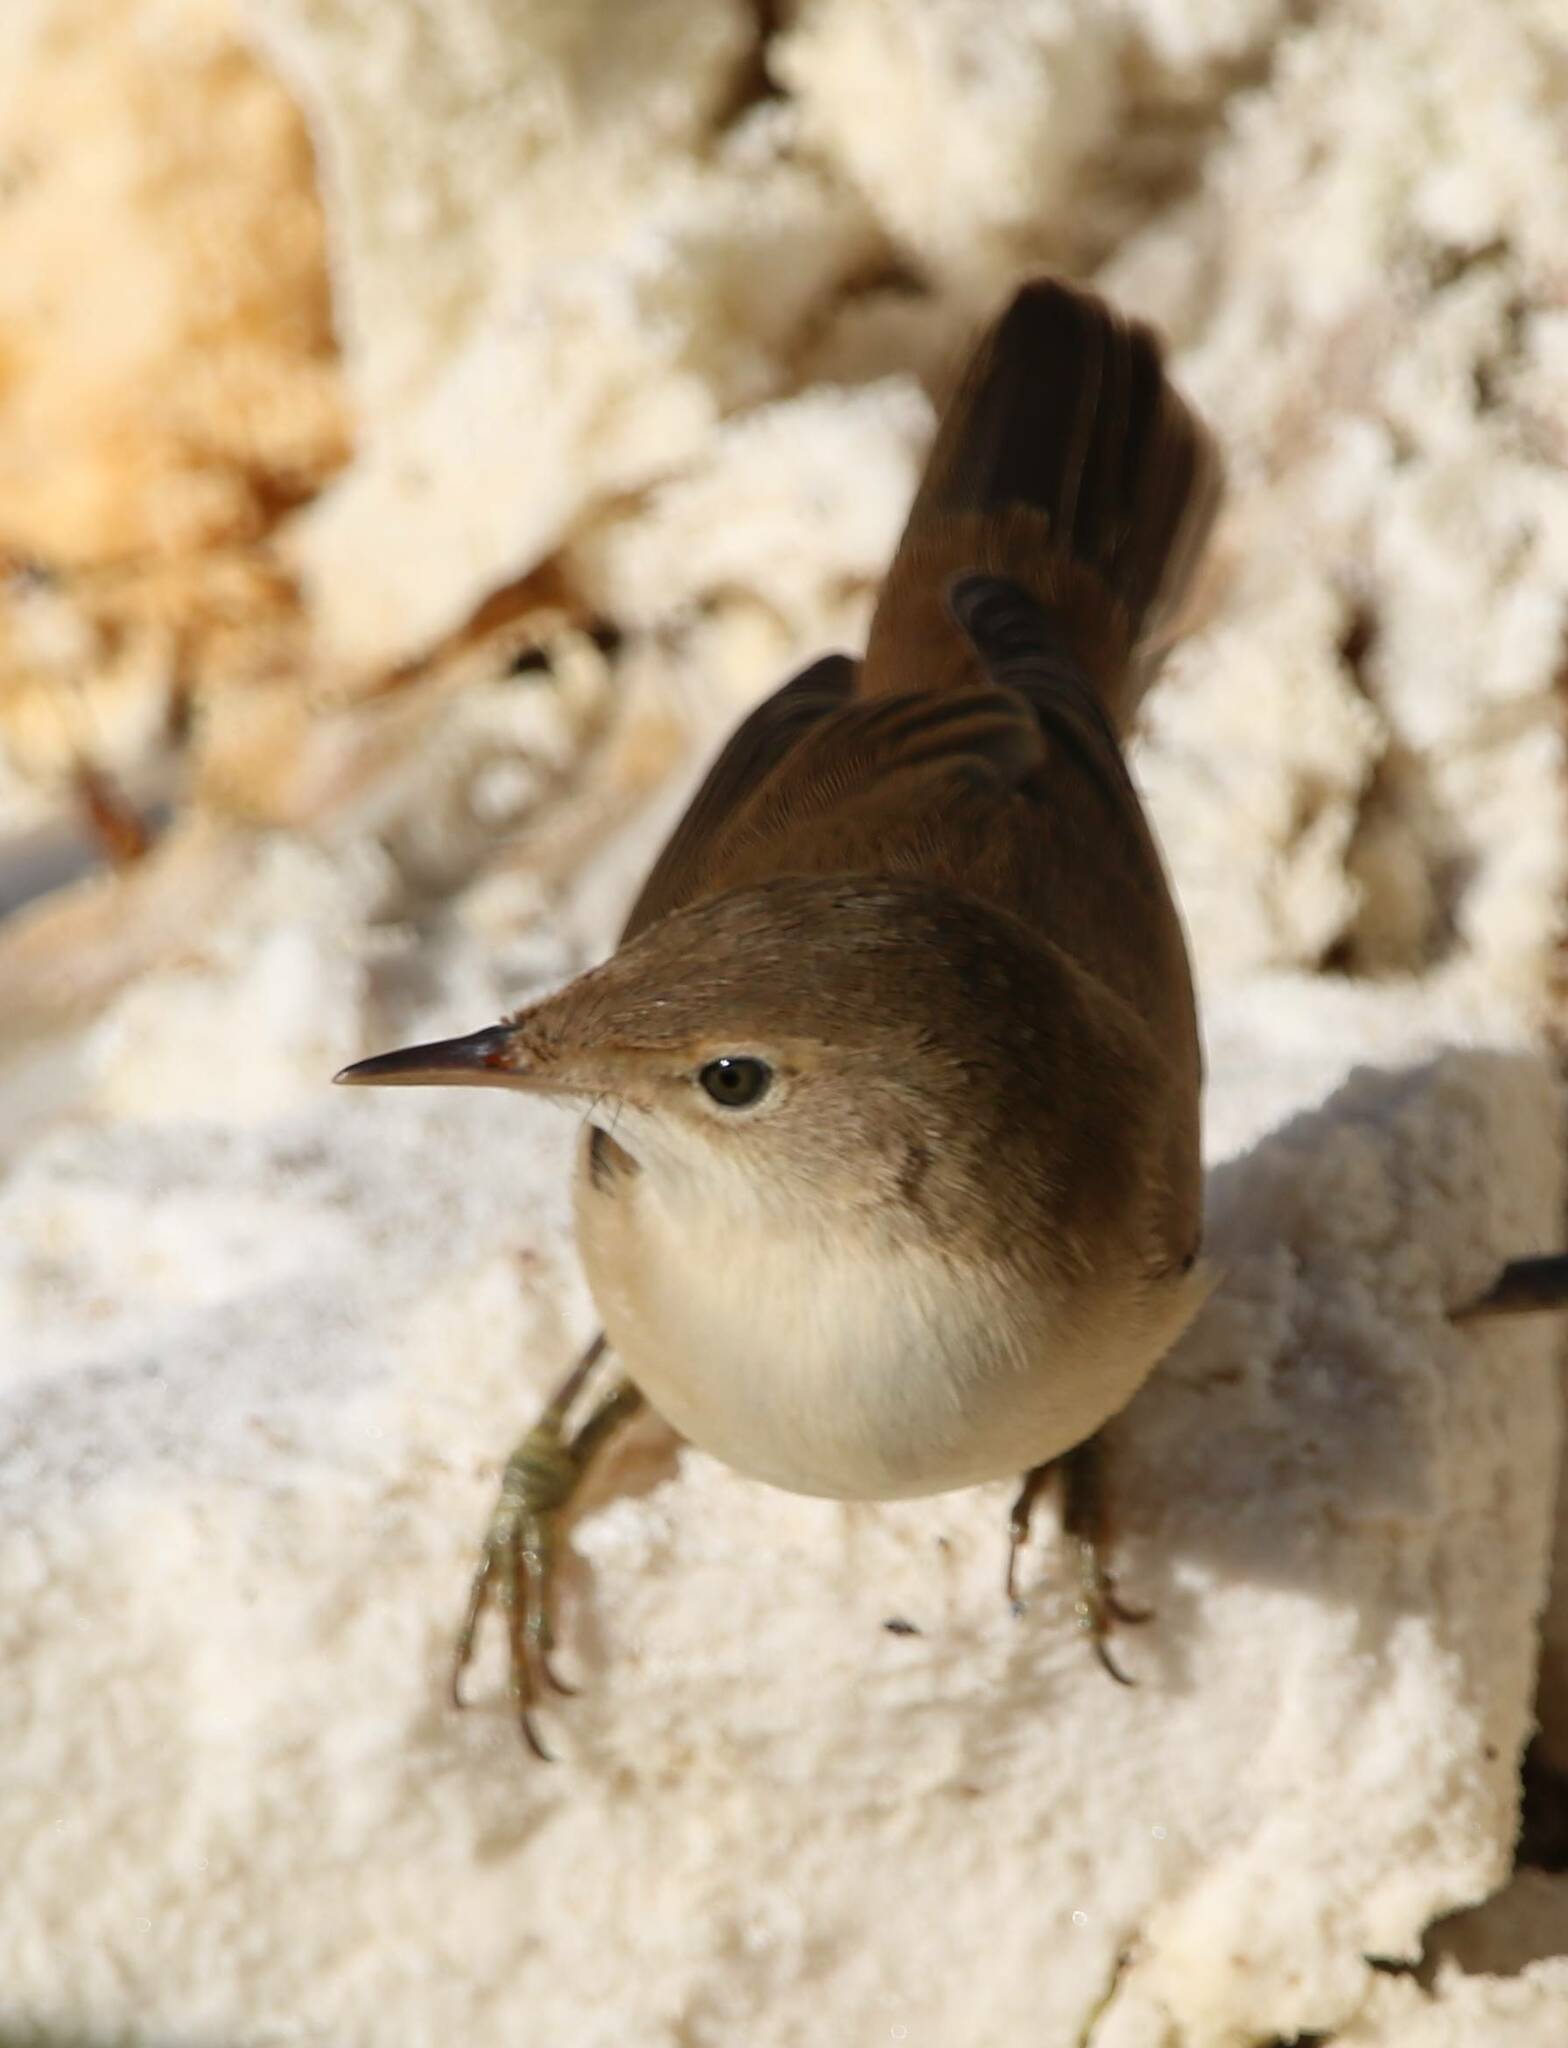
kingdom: Animalia
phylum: Chordata
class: Aves
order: Passeriformes
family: Acrocephalidae
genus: Acrocephalus
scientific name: Acrocephalus scirpaceus
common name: Eurasian reed warbler
